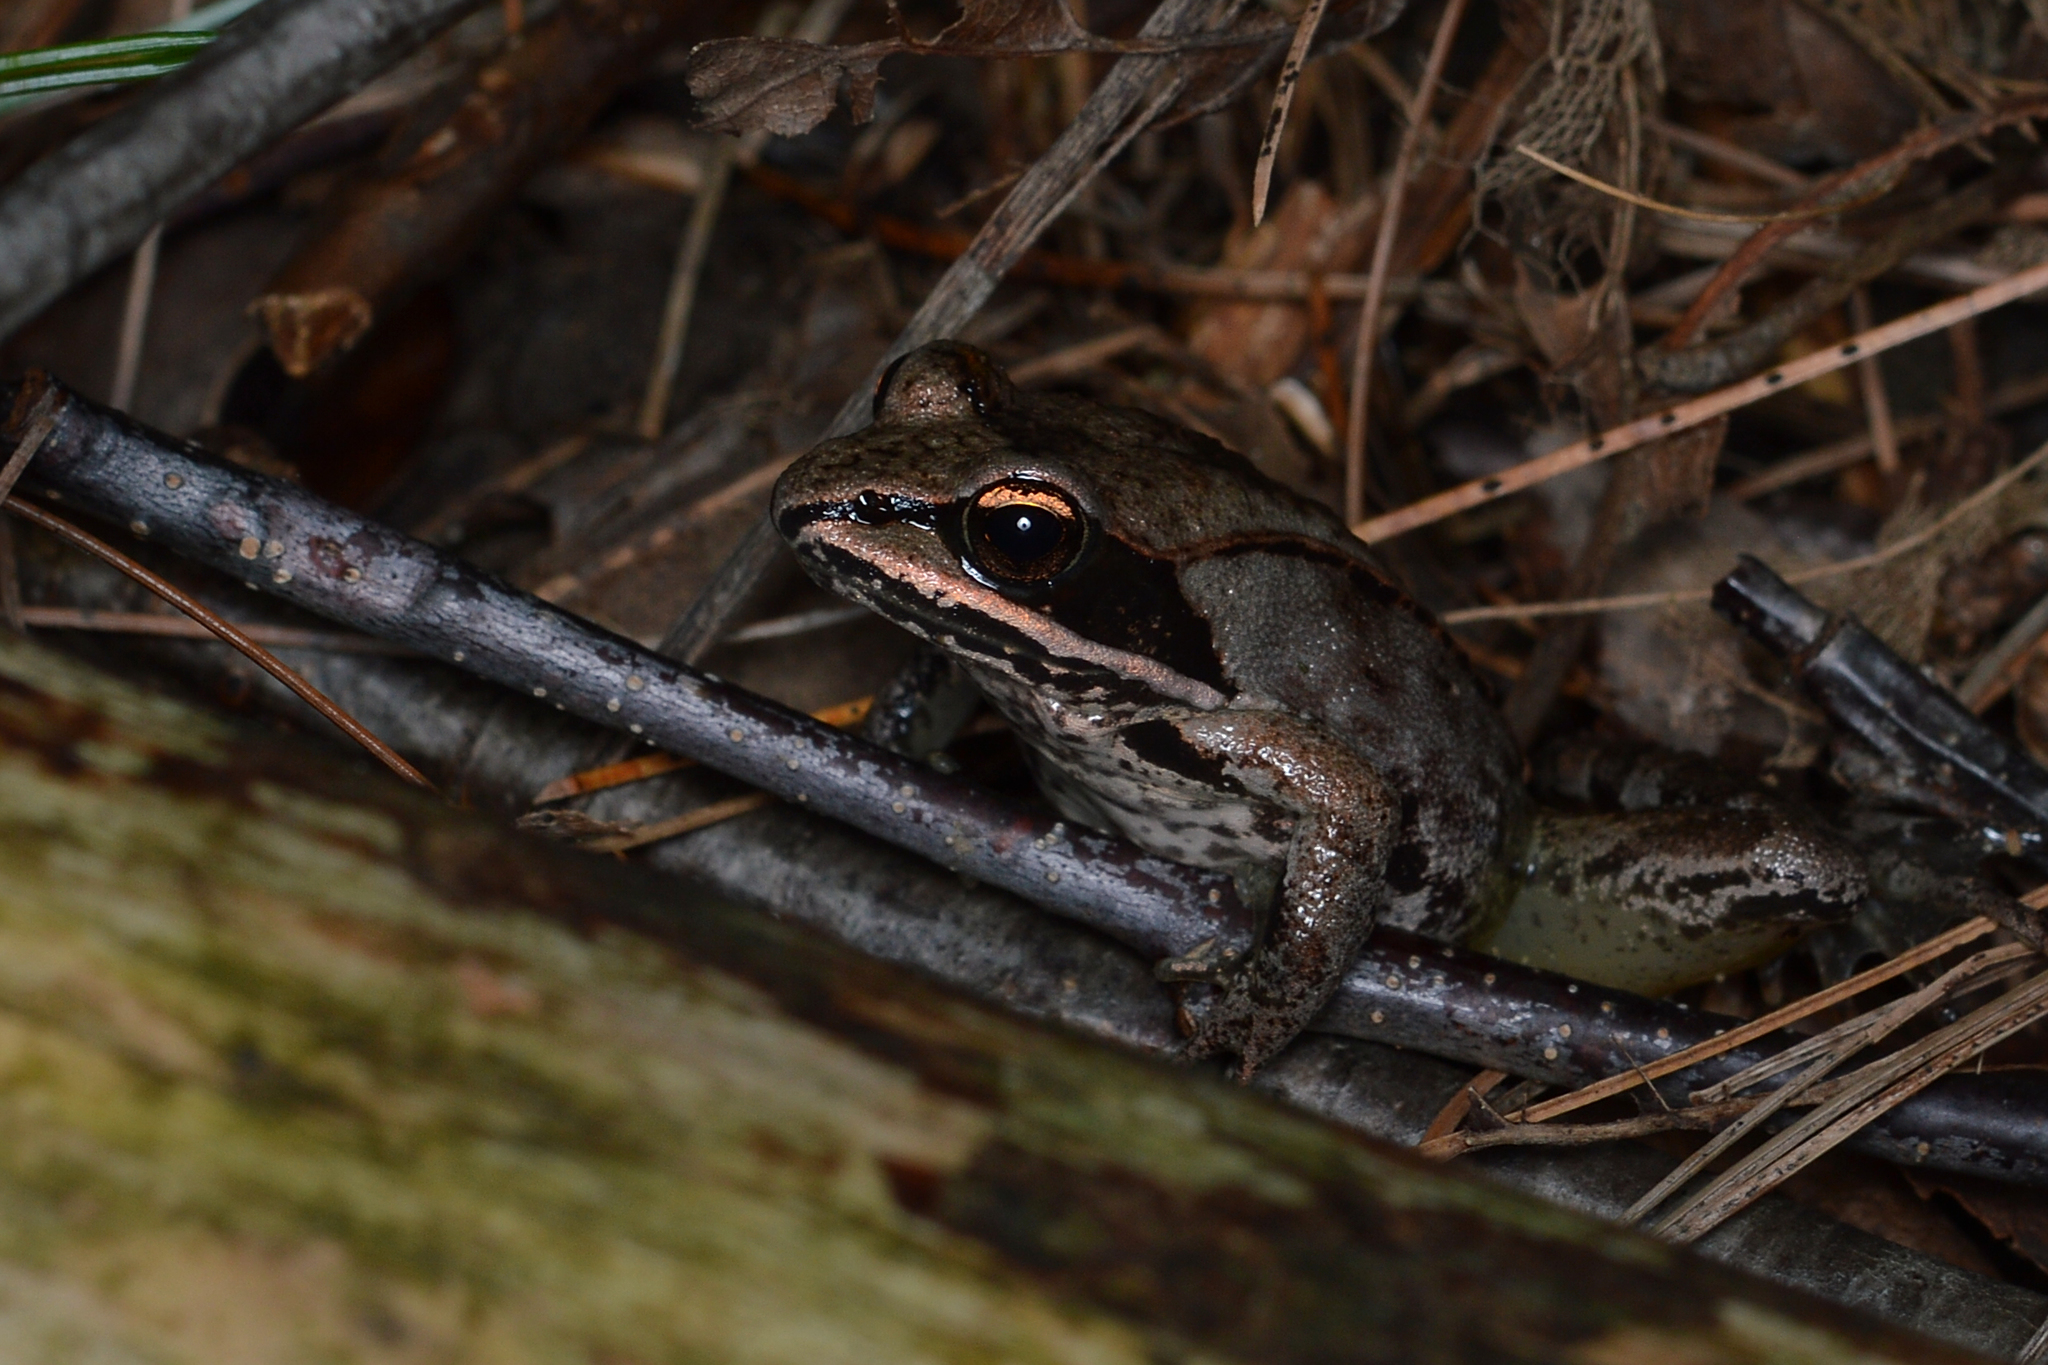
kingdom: Animalia
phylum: Chordata
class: Amphibia
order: Anura
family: Ranidae
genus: Lithobates
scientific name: Lithobates sylvaticus
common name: Wood frog
